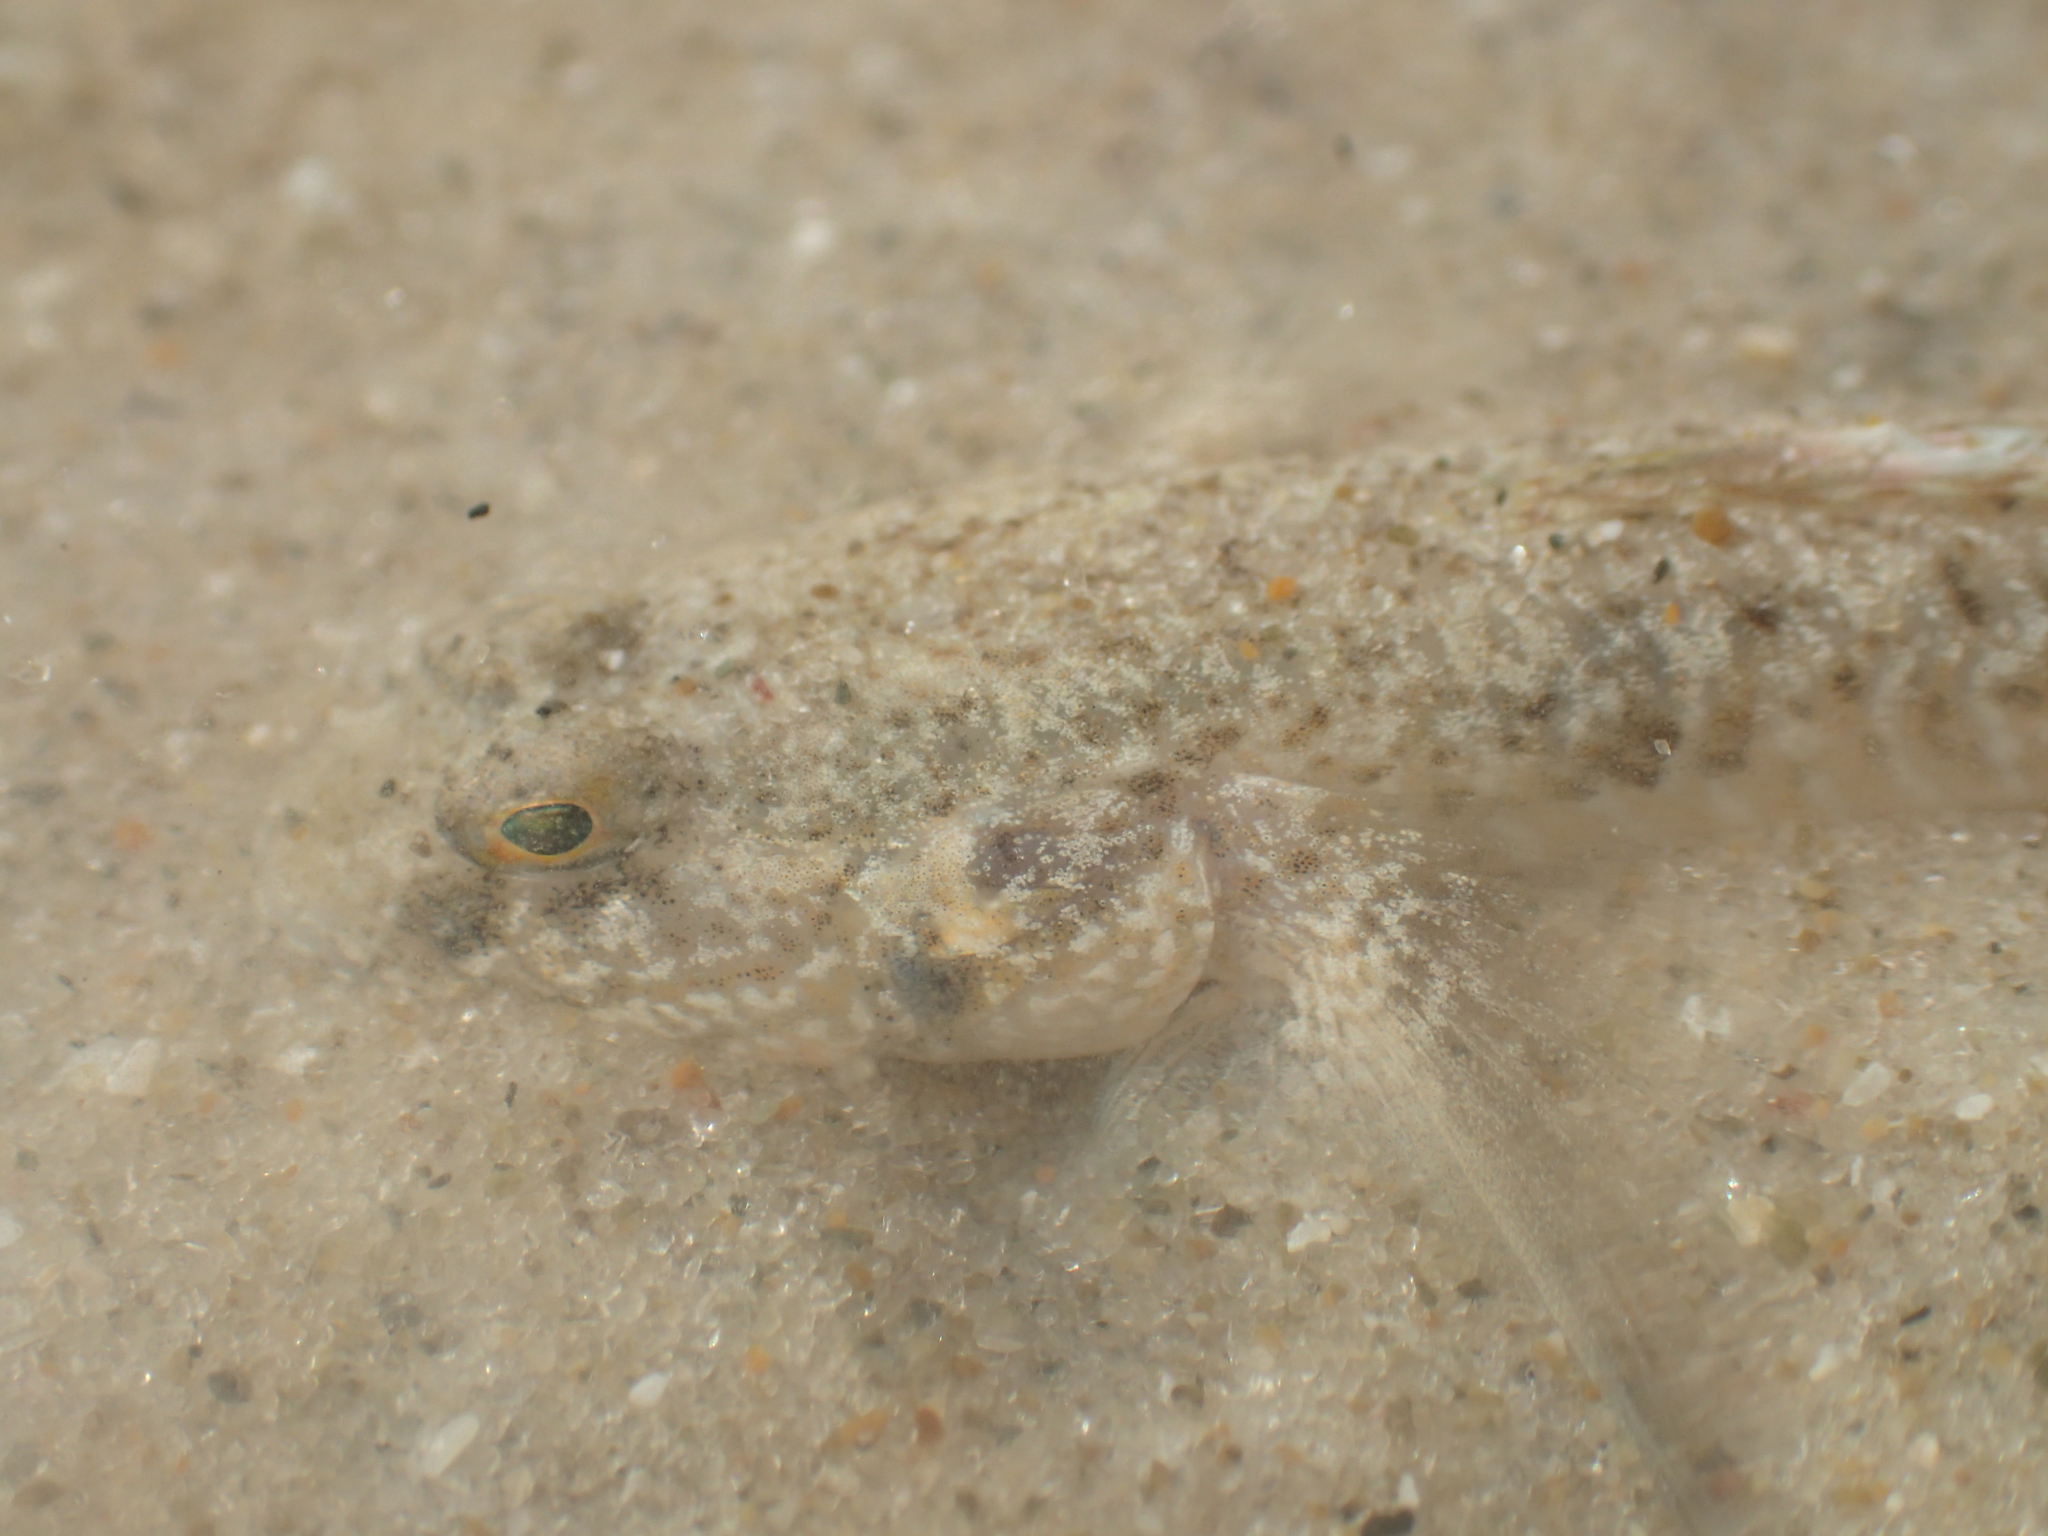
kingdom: Animalia
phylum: Chordata
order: Perciformes
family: Gobiidae
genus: Favonigobius
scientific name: Favonigobius lentiginosus
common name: Eastern longfin goby
